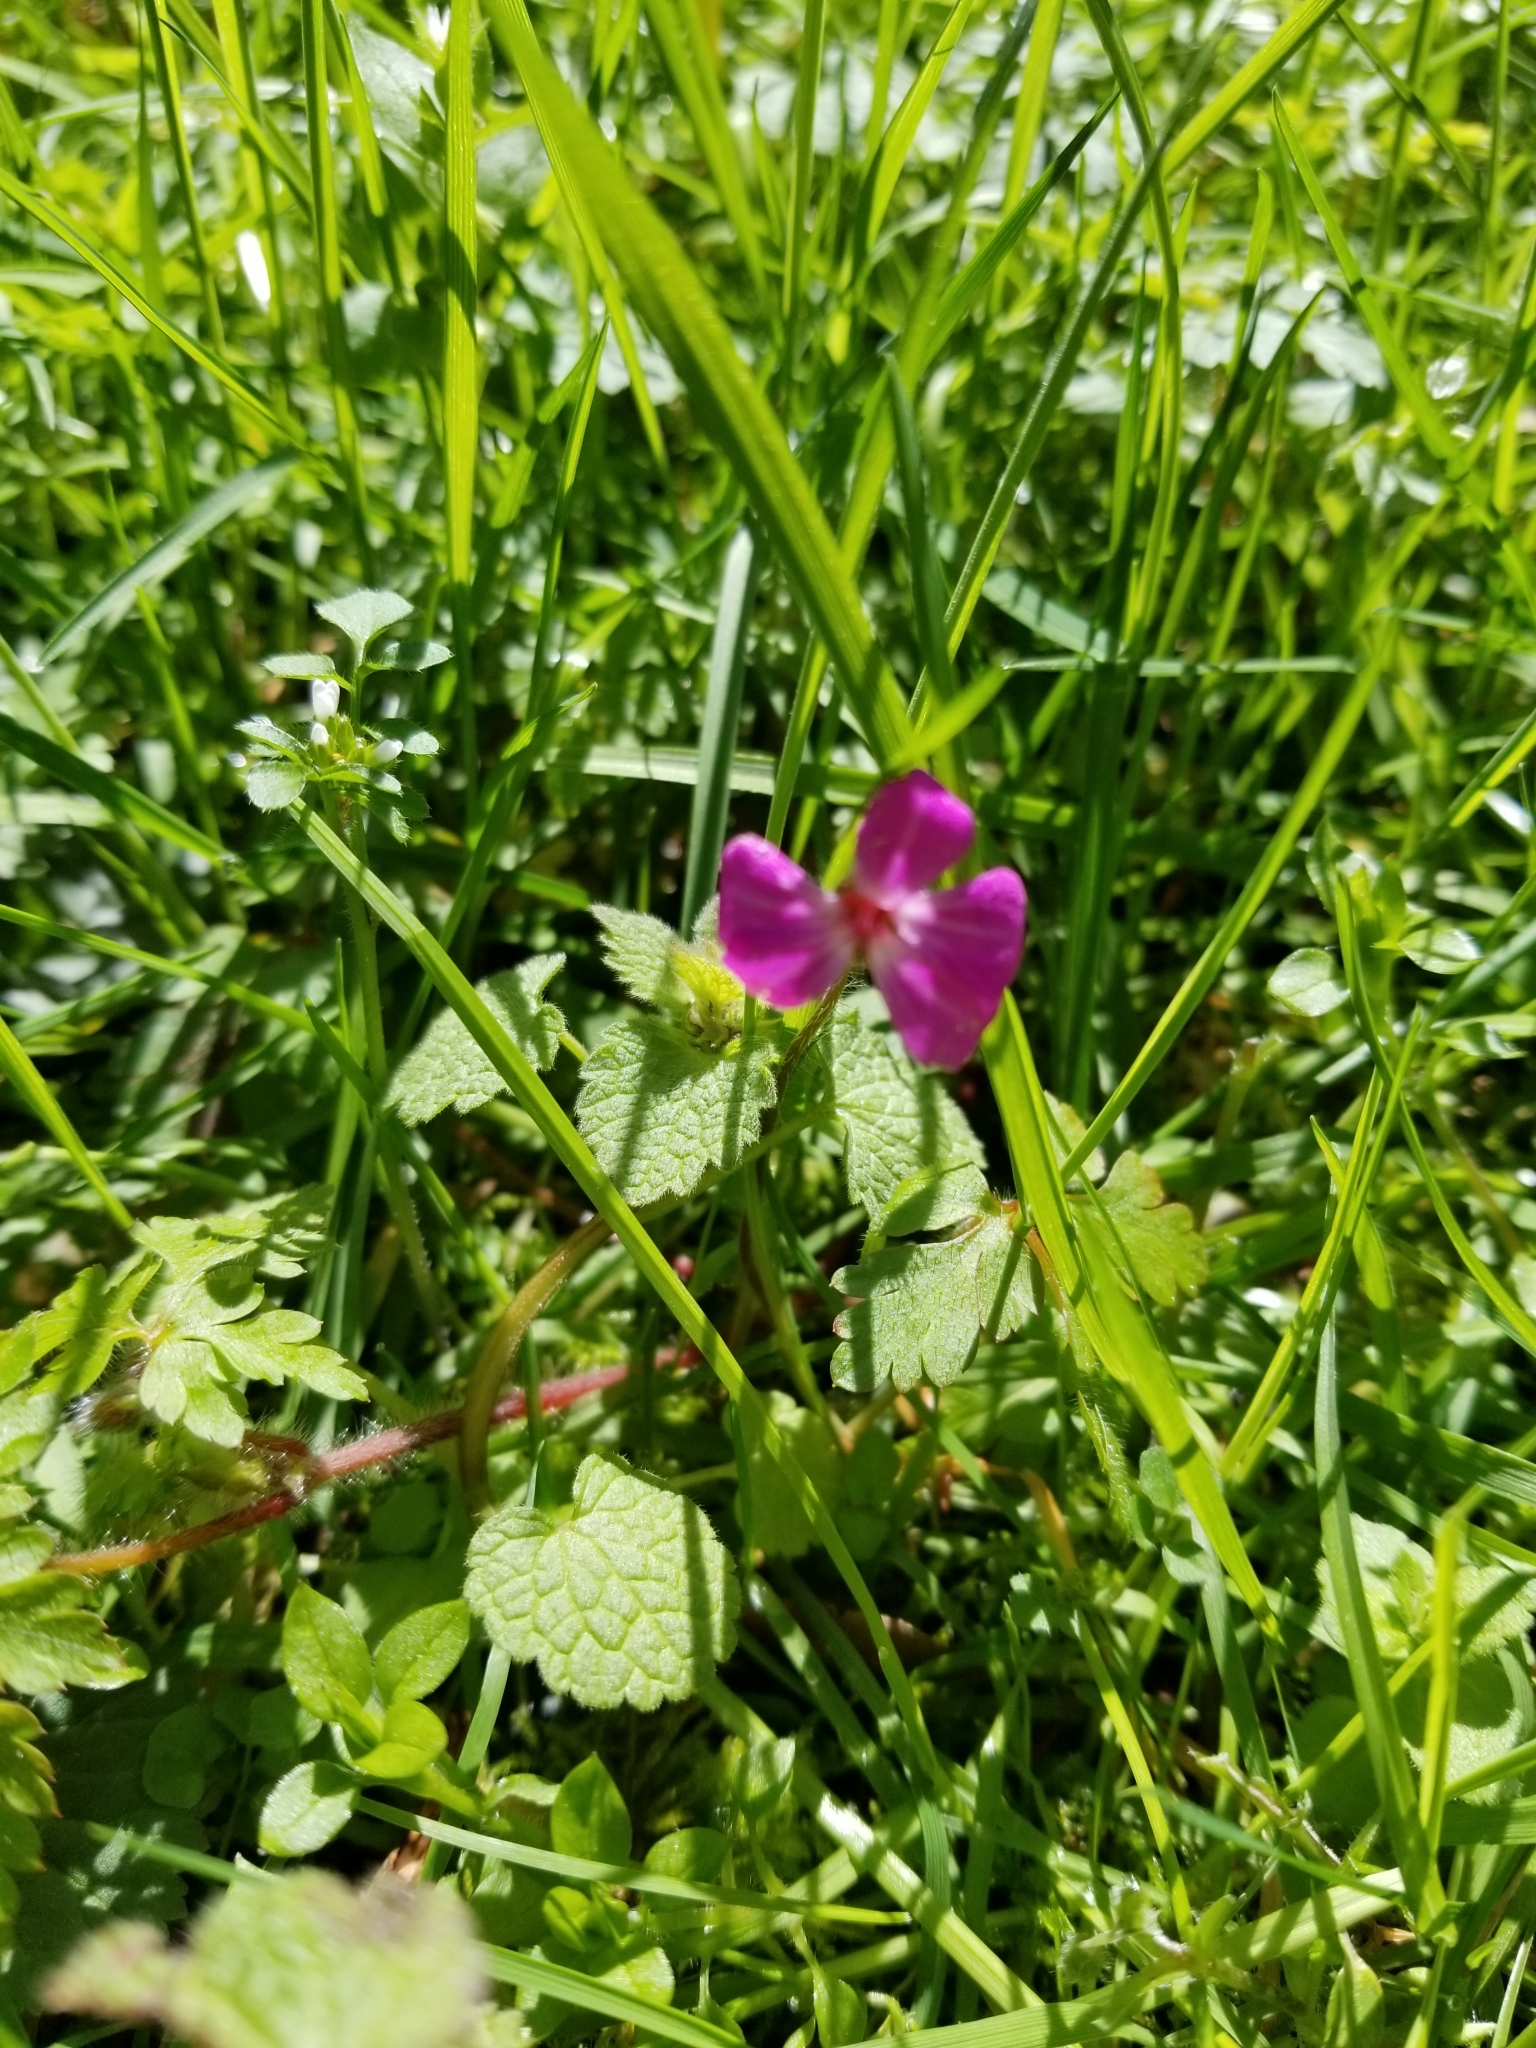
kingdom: Plantae
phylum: Tracheophyta
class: Magnoliopsida
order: Geraniales
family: Geraniaceae
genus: Geranium
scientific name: Geranium robertianum
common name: Herb-robert
